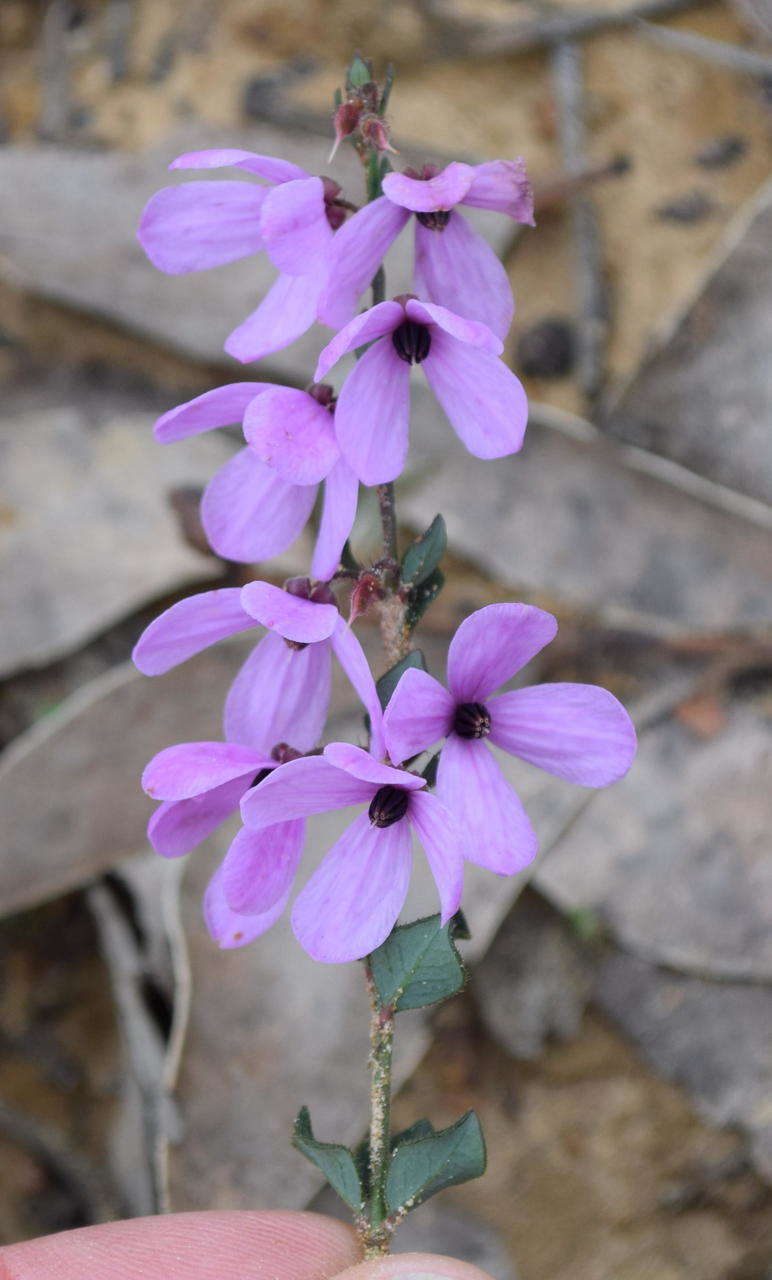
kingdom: Plantae
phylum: Tracheophyta
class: Magnoliopsida
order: Oxalidales
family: Elaeocarpaceae
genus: Tetratheca
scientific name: Tetratheca ciliata
